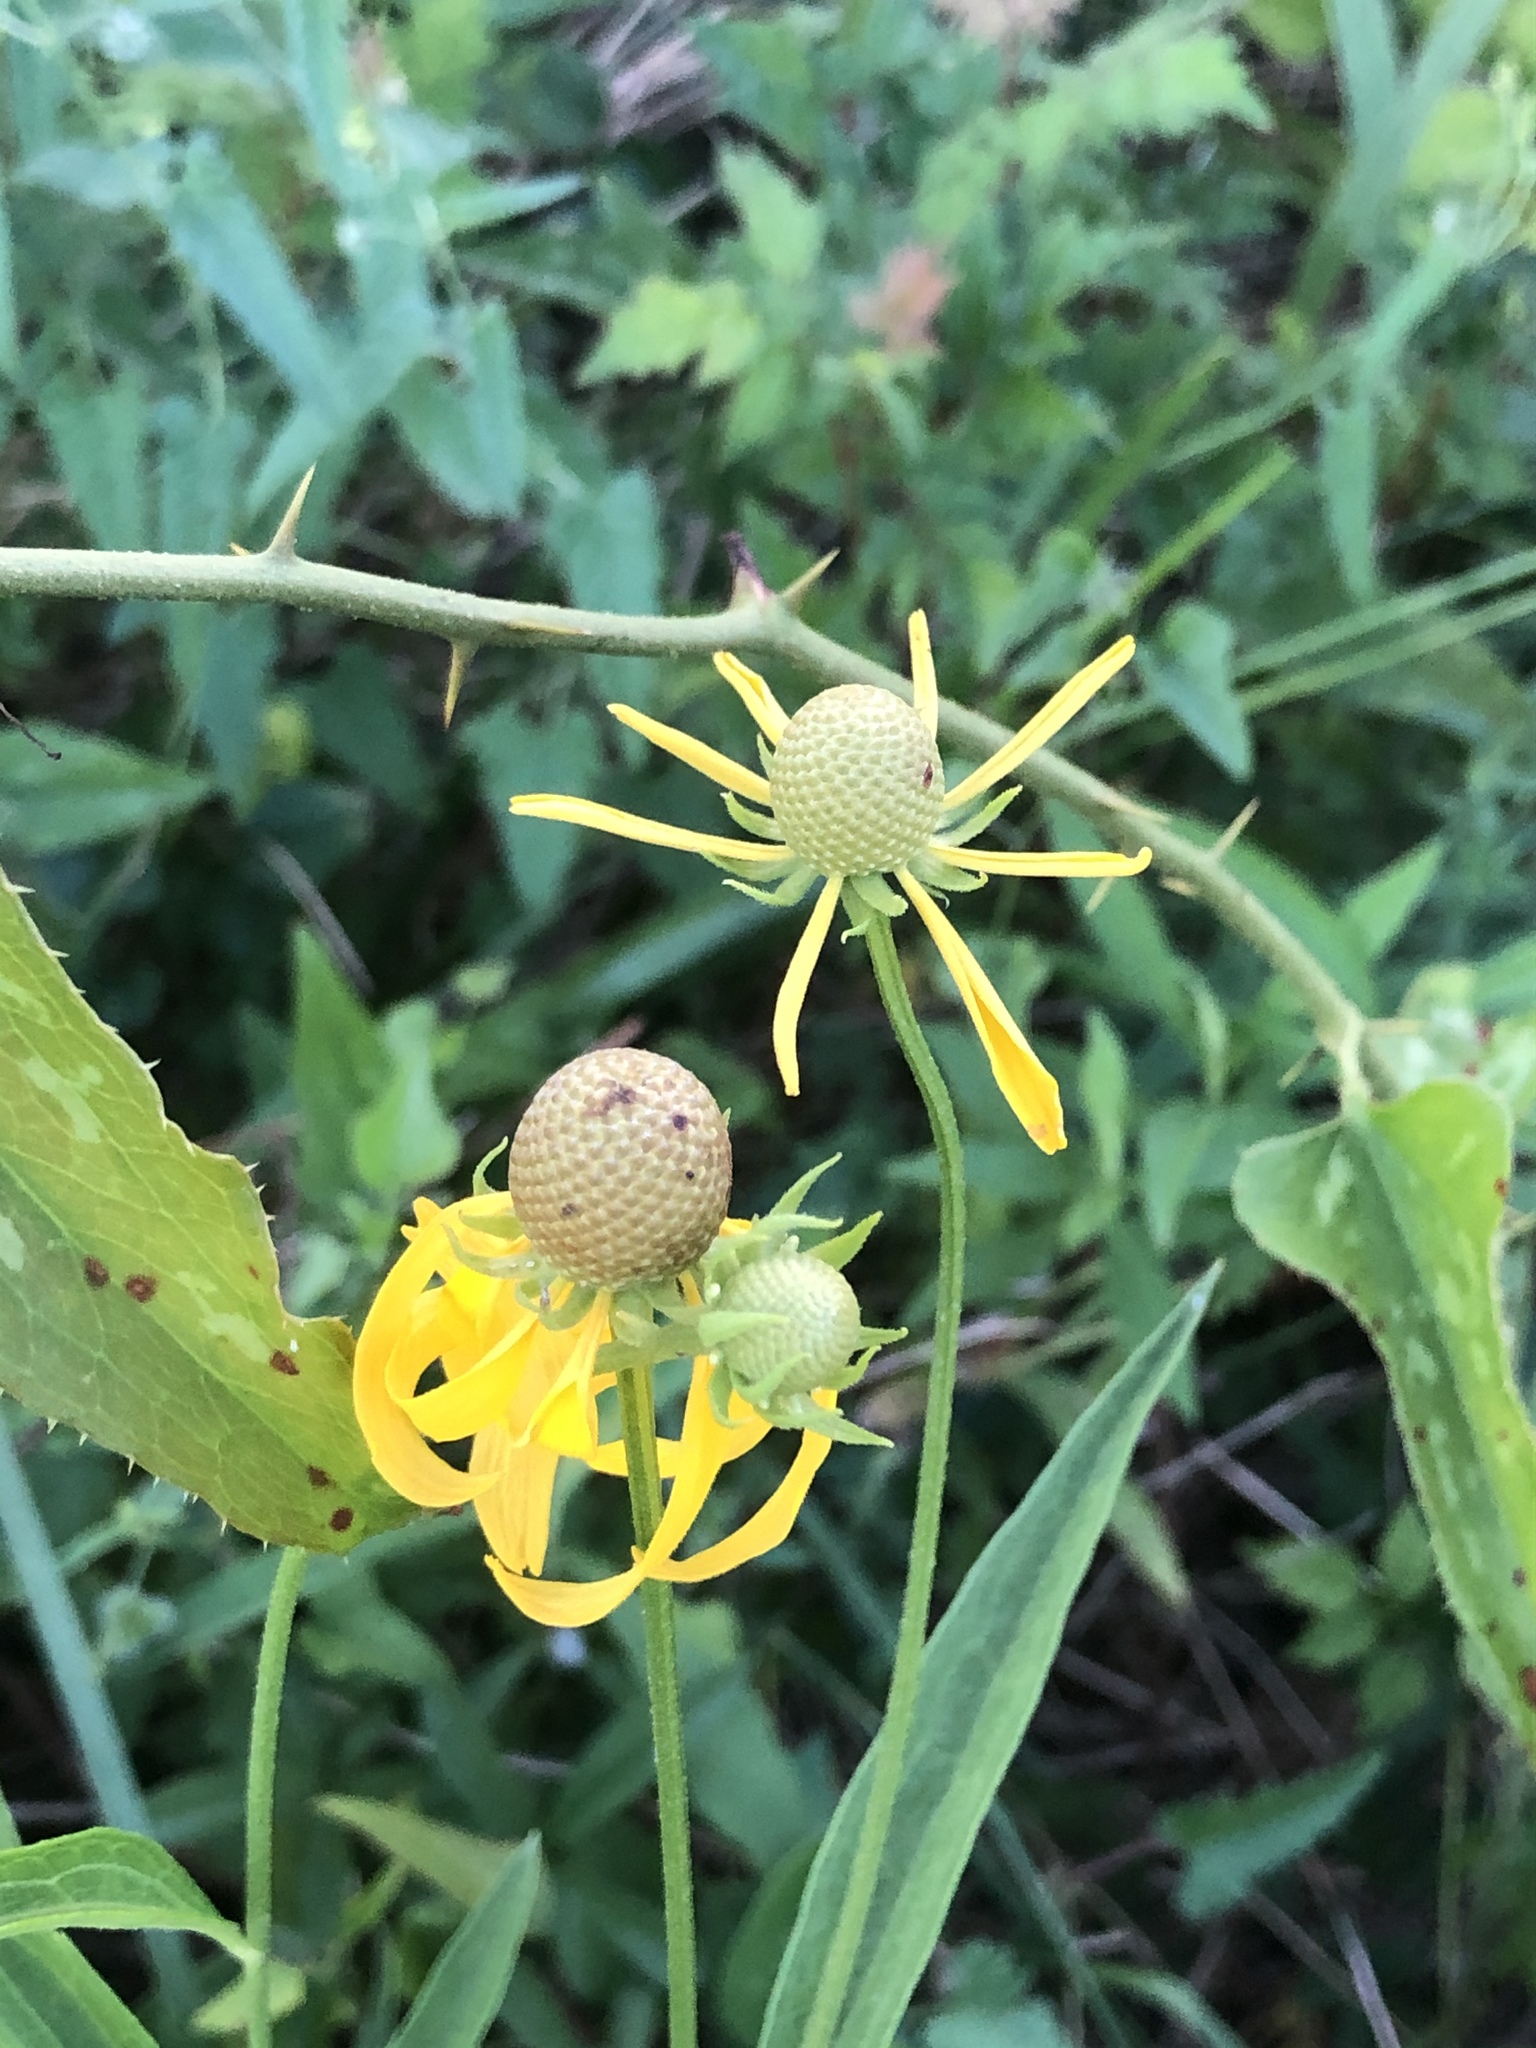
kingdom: Plantae
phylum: Tracheophyta
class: Magnoliopsida
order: Asterales
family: Asteraceae
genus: Ratibida
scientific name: Ratibida pinnata
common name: Drooping prairie-coneflower
